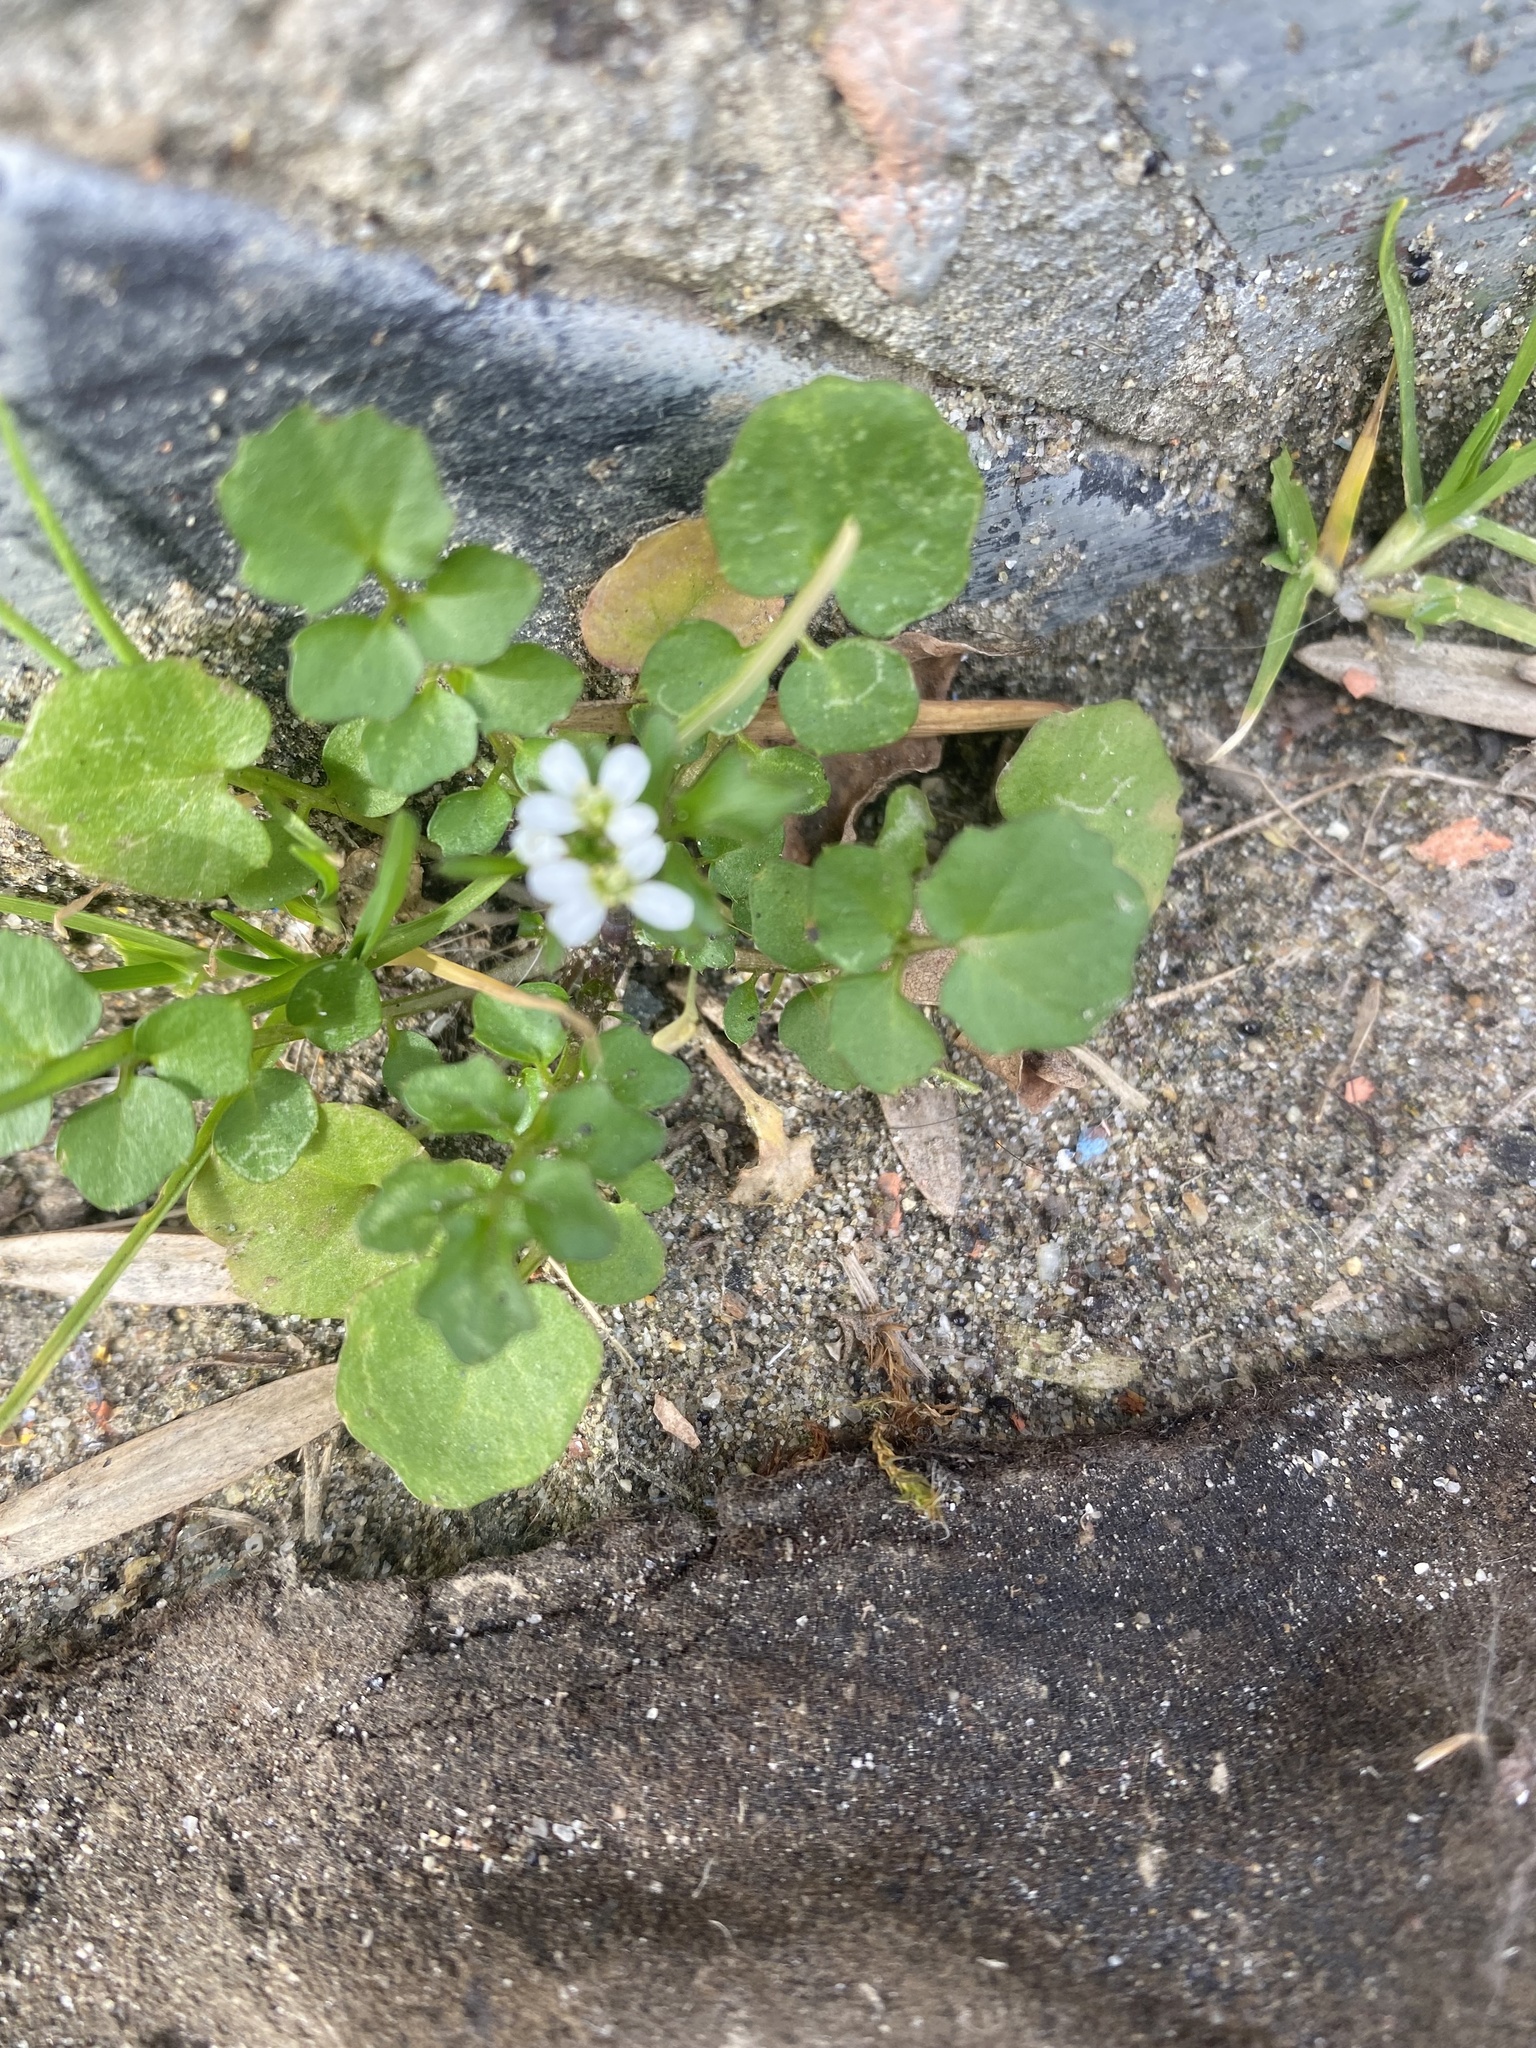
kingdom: Plantae
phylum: Tracheophyta
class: Magnoliopsida
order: Brassicales
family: Brassicaceae
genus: Cardamine
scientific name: Cardamine hirsuta
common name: Hairy bittercress
